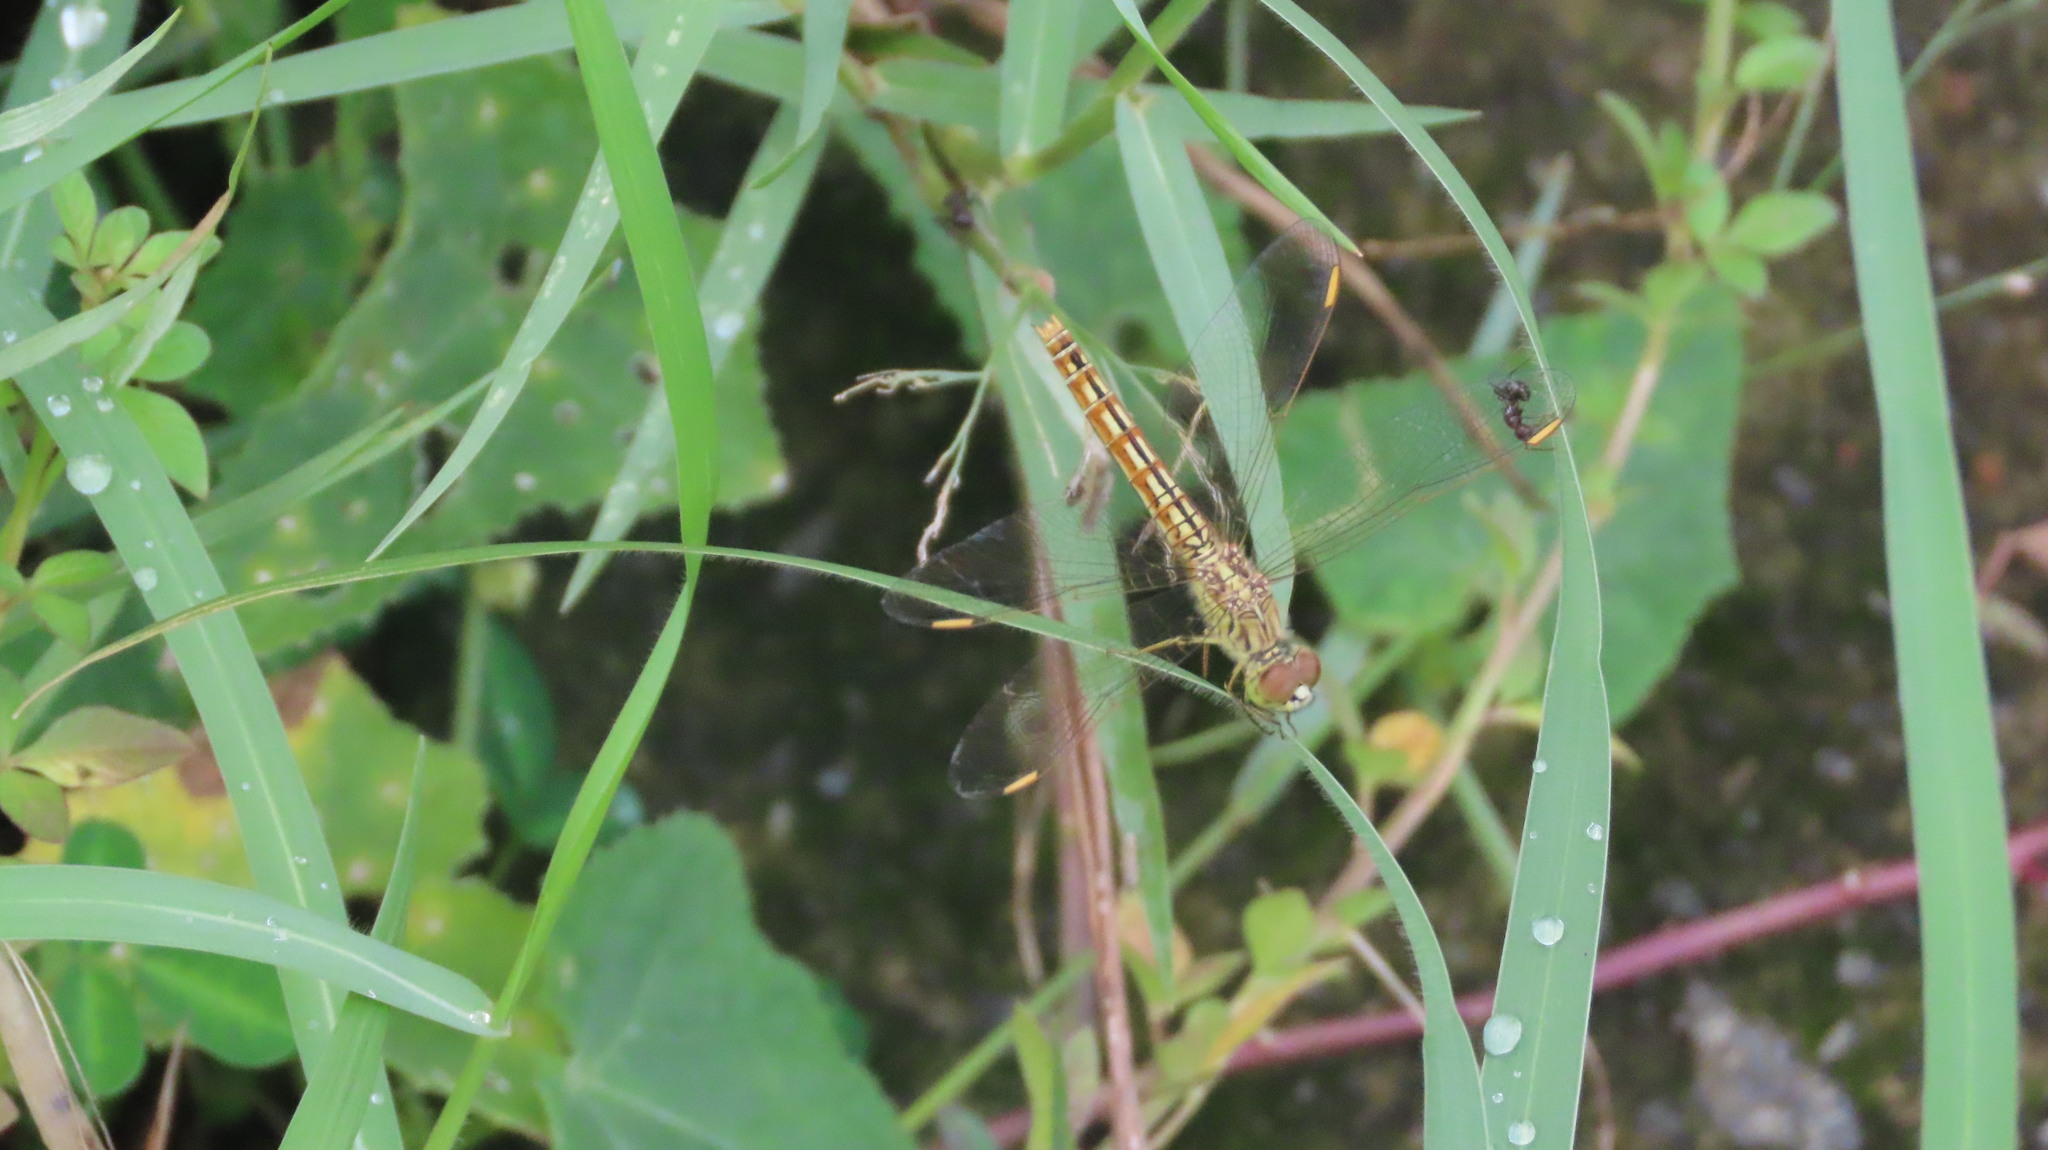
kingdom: Animalia
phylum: Arthropoda
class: Insecta
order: Odonata
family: Libellulidae
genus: Brachythemis
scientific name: Brachythemis contaminata
